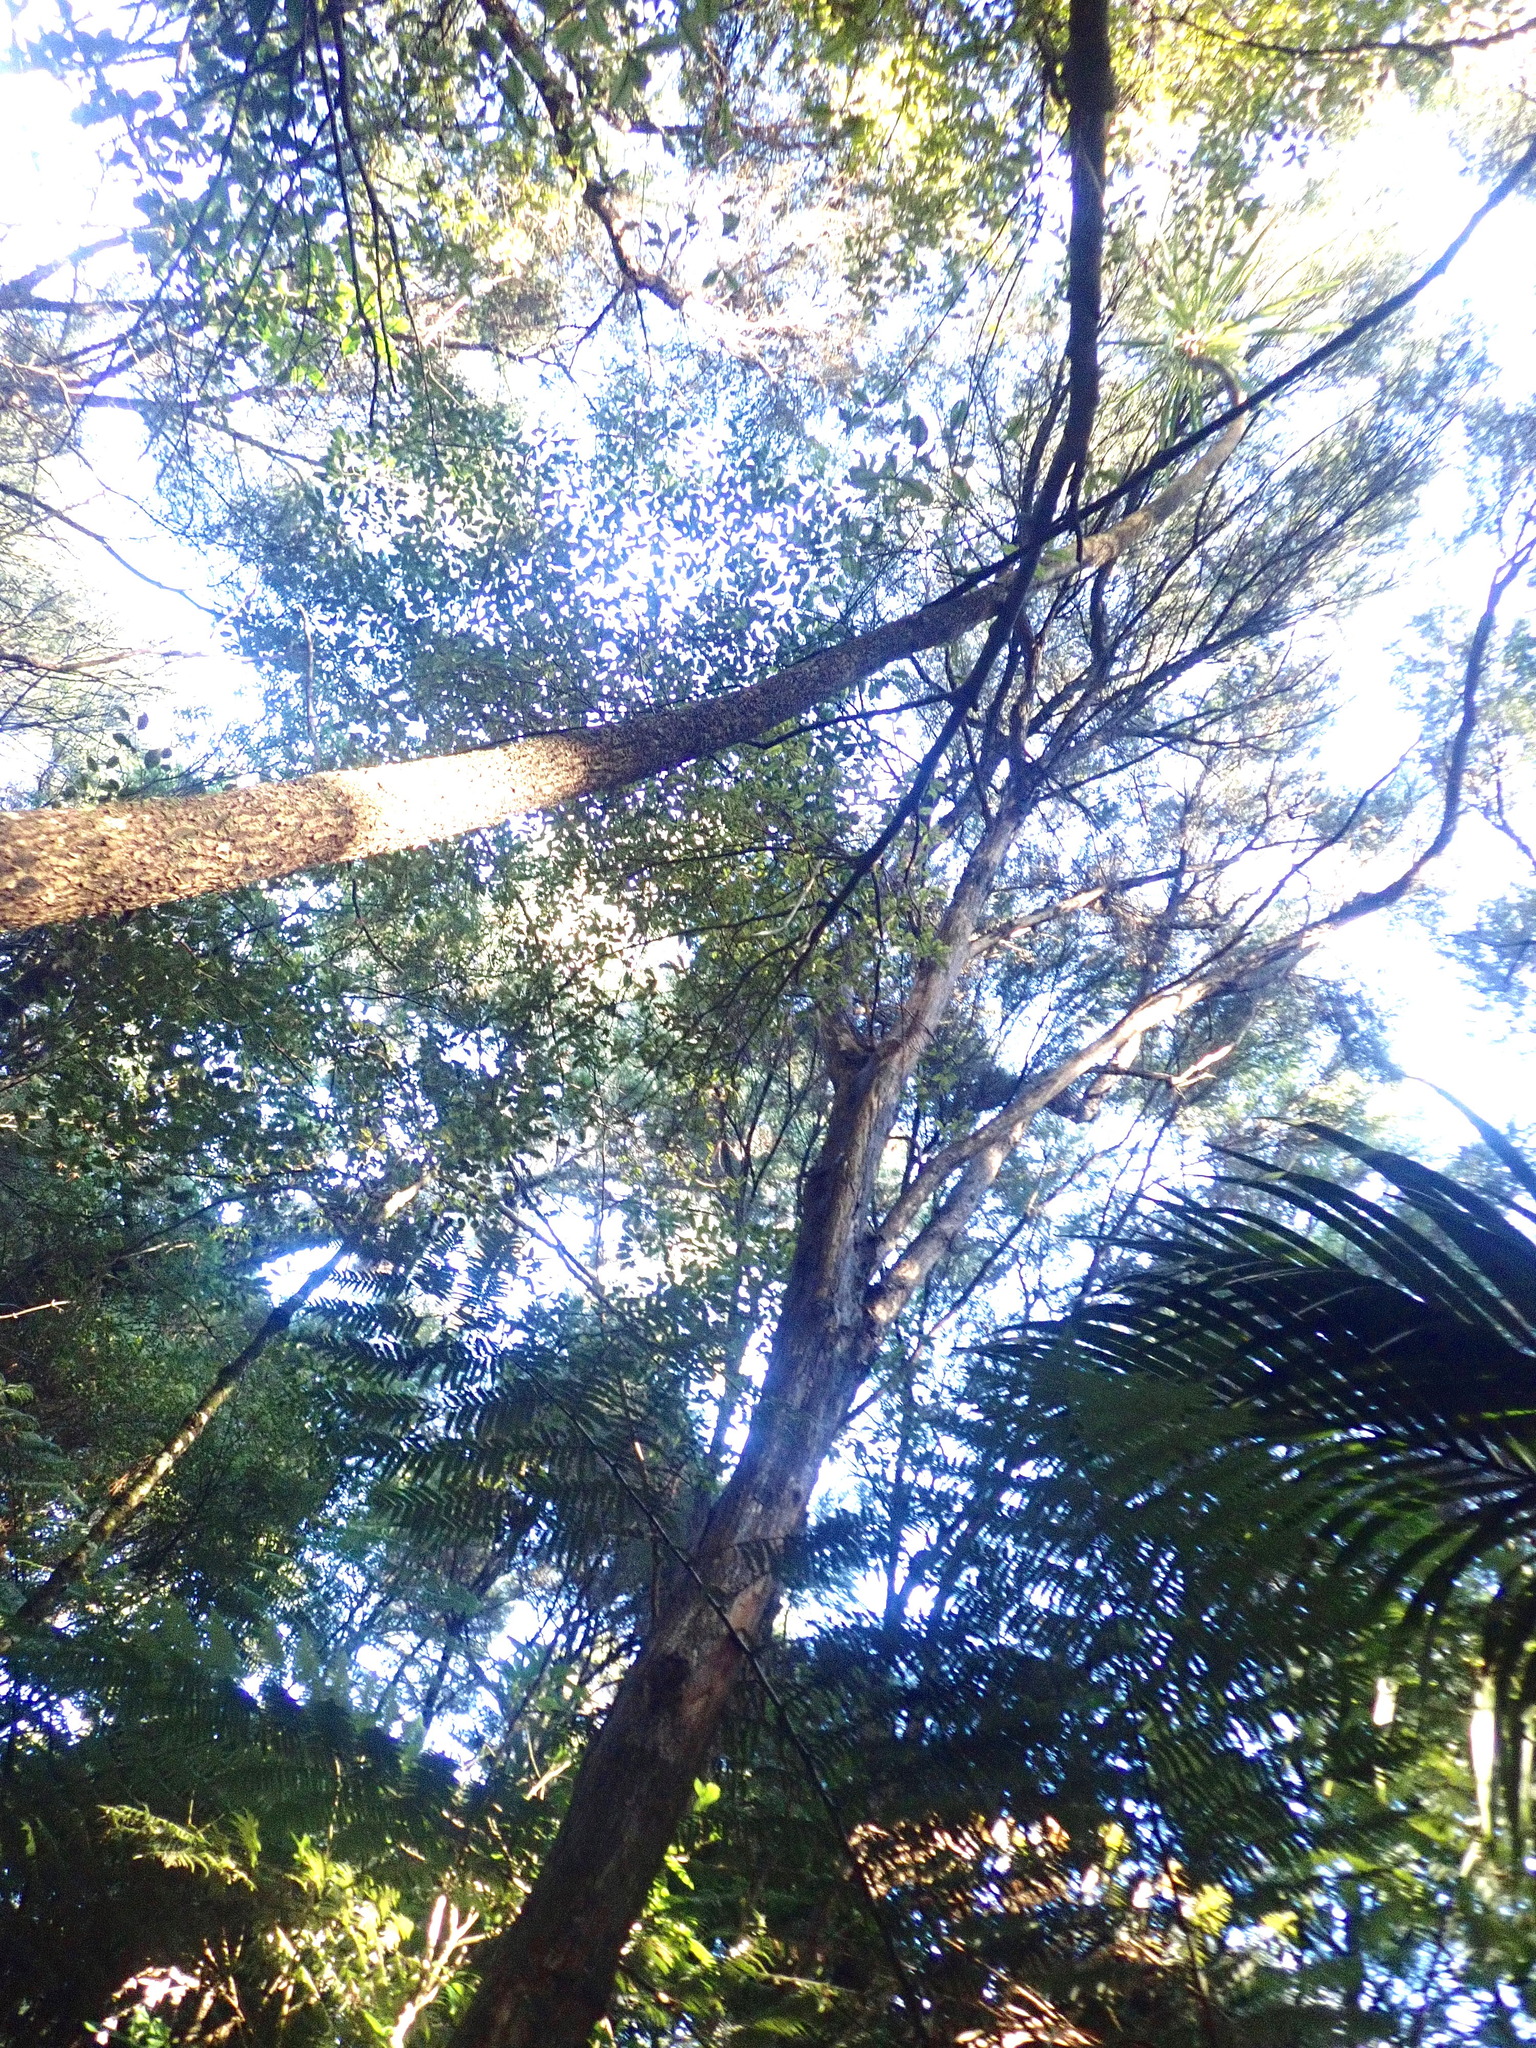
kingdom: Plantae
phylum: Tracheophyta
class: Magnoliopsida
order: Myrtales
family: Myrtaceae
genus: Kunzea
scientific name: Kunzea robusta
